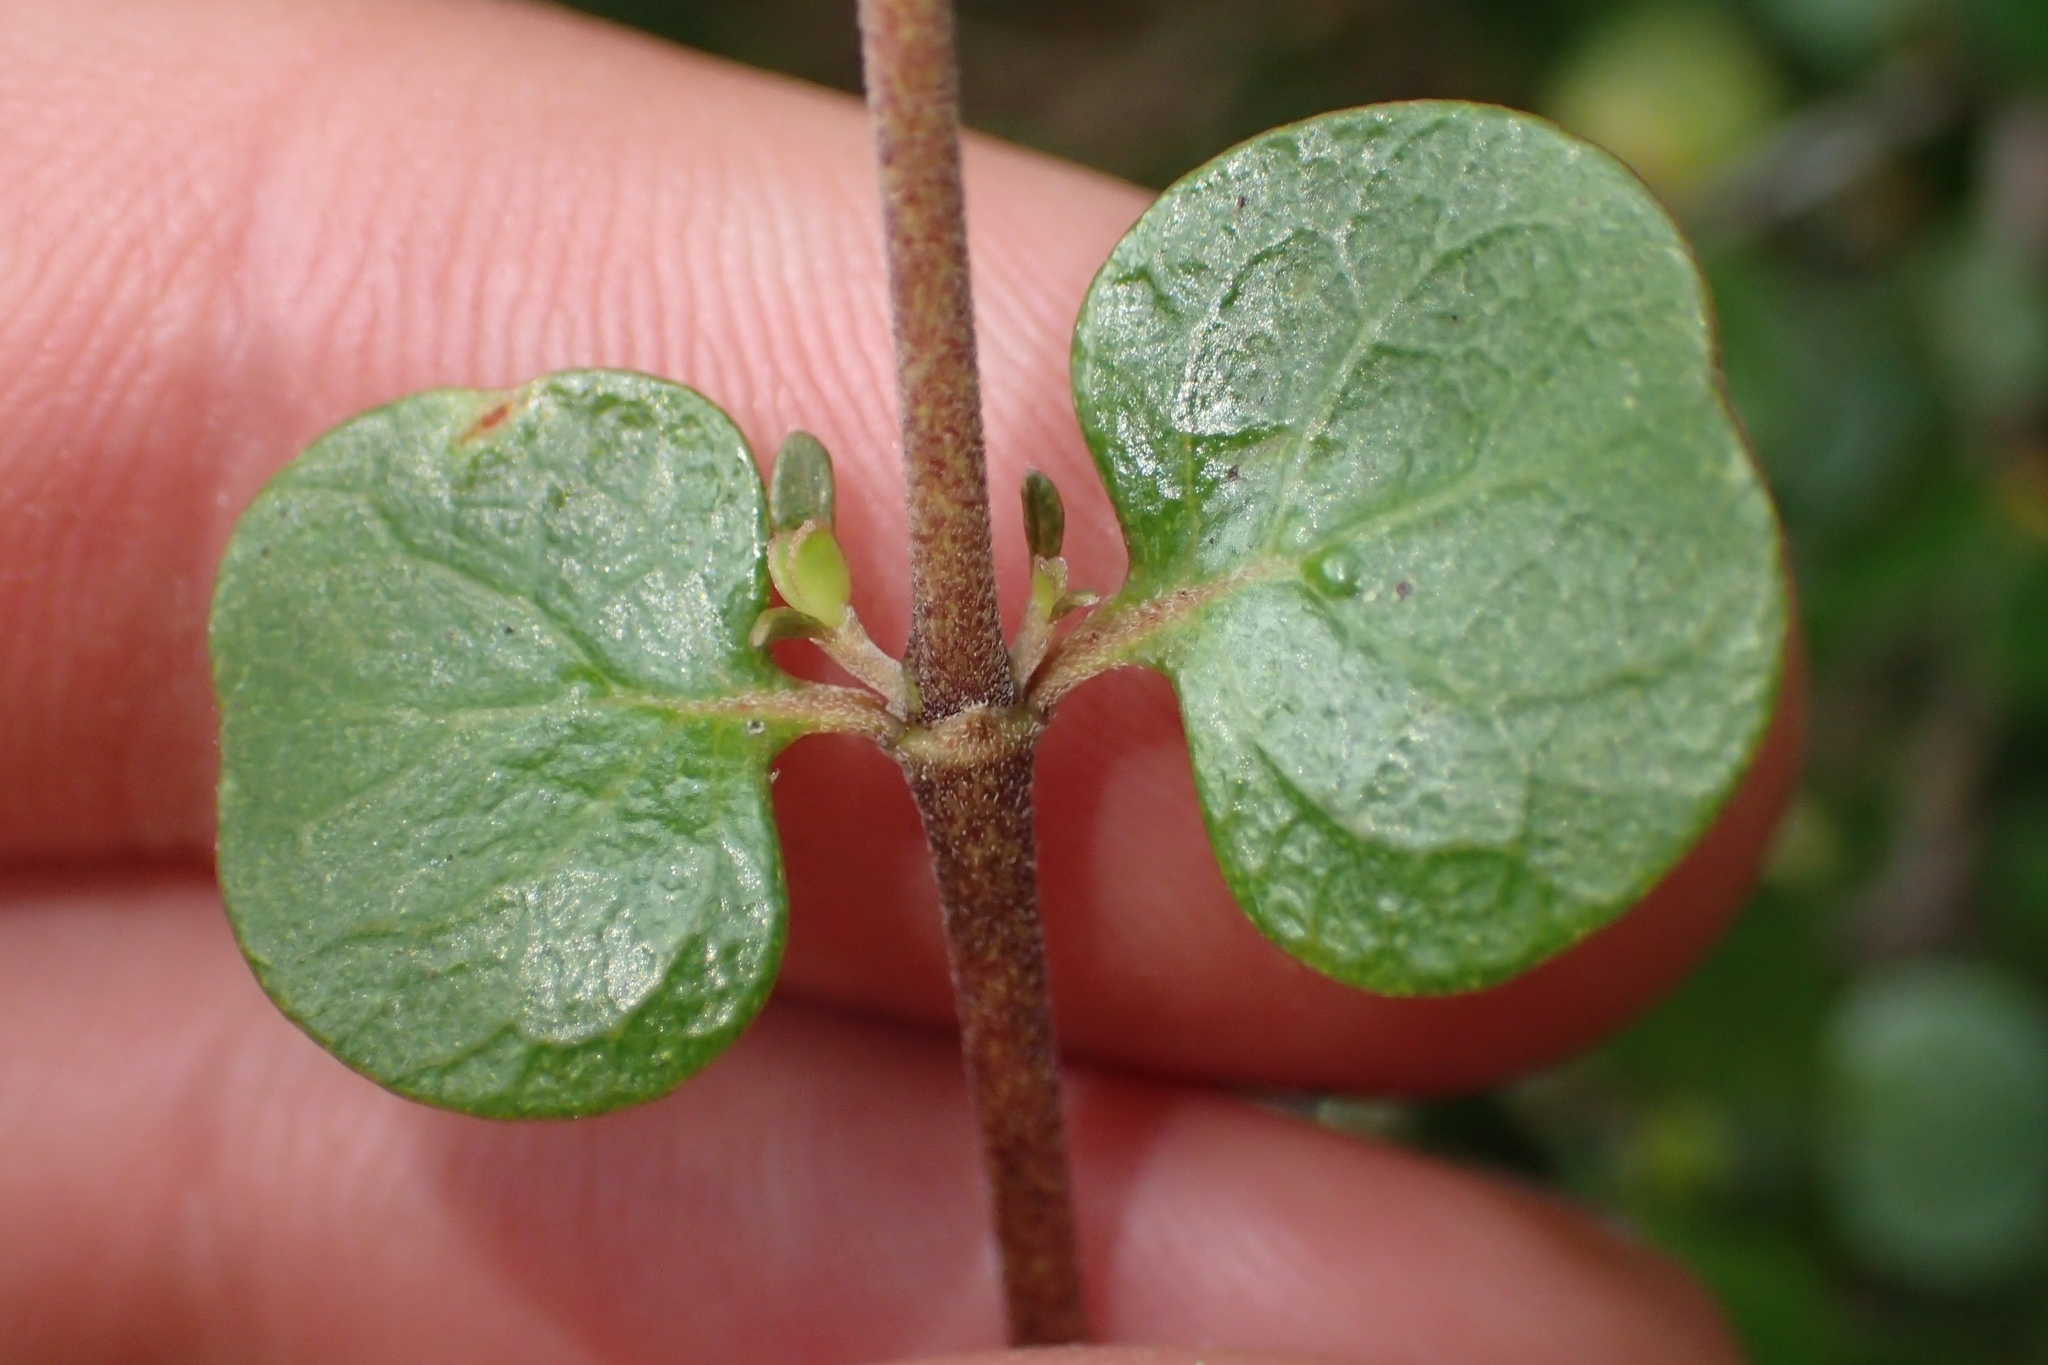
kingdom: Plantae
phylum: Tracheophyta
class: Magnoliopsida
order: Gentianales
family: Rubiaceae
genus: Coprosma
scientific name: Coprosma neglecta
